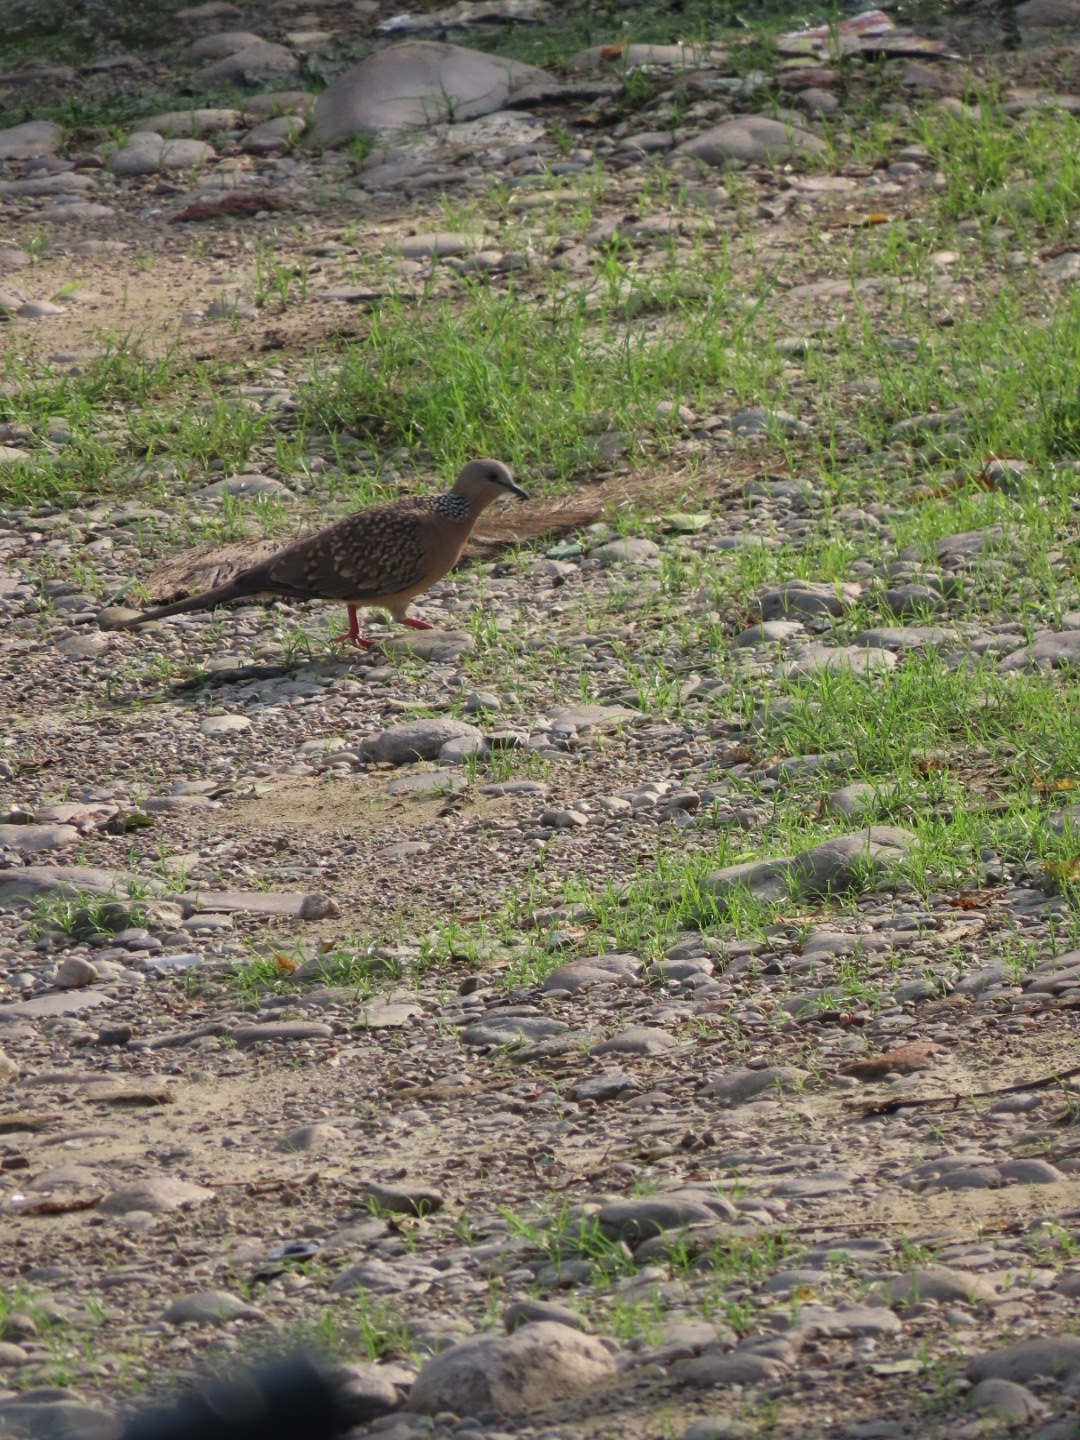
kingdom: Animalia
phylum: Chordata
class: Aves
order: Columbiformes
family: Columbidae
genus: Spilopelia
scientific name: Spilopelia chinensis
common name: Spotted dove
